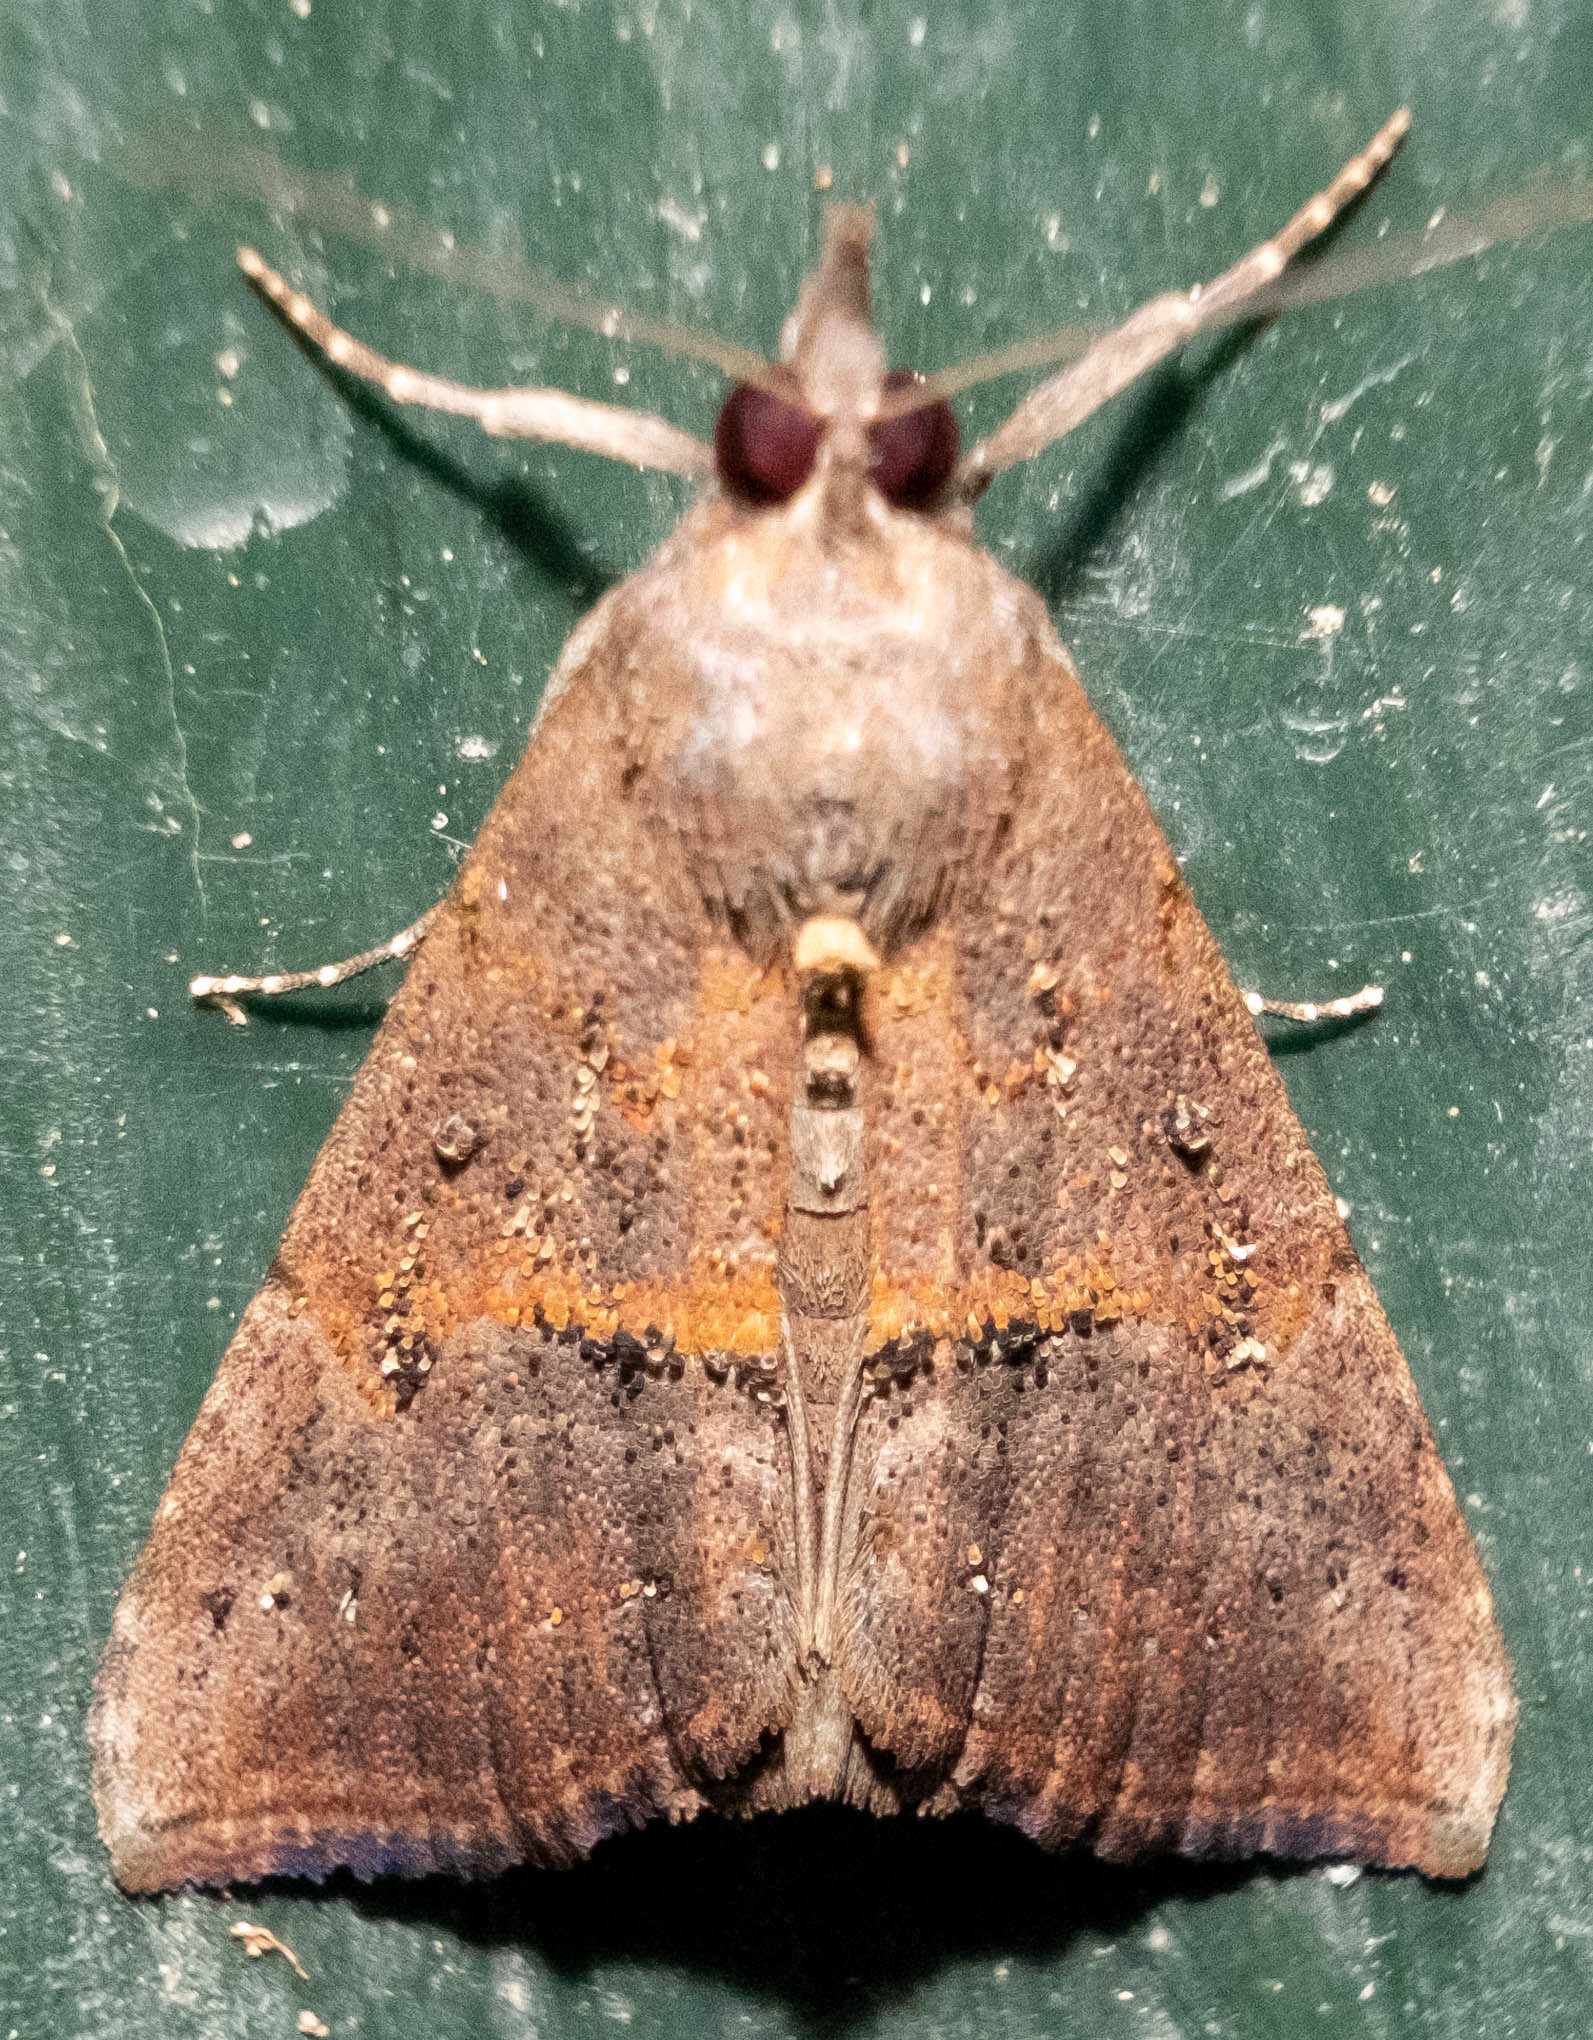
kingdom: Animalia
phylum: Arthropoda
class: Insecta
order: Lepidoptera
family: Erebidae
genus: Hypena
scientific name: Hypena scabra
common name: Green cloverworm
